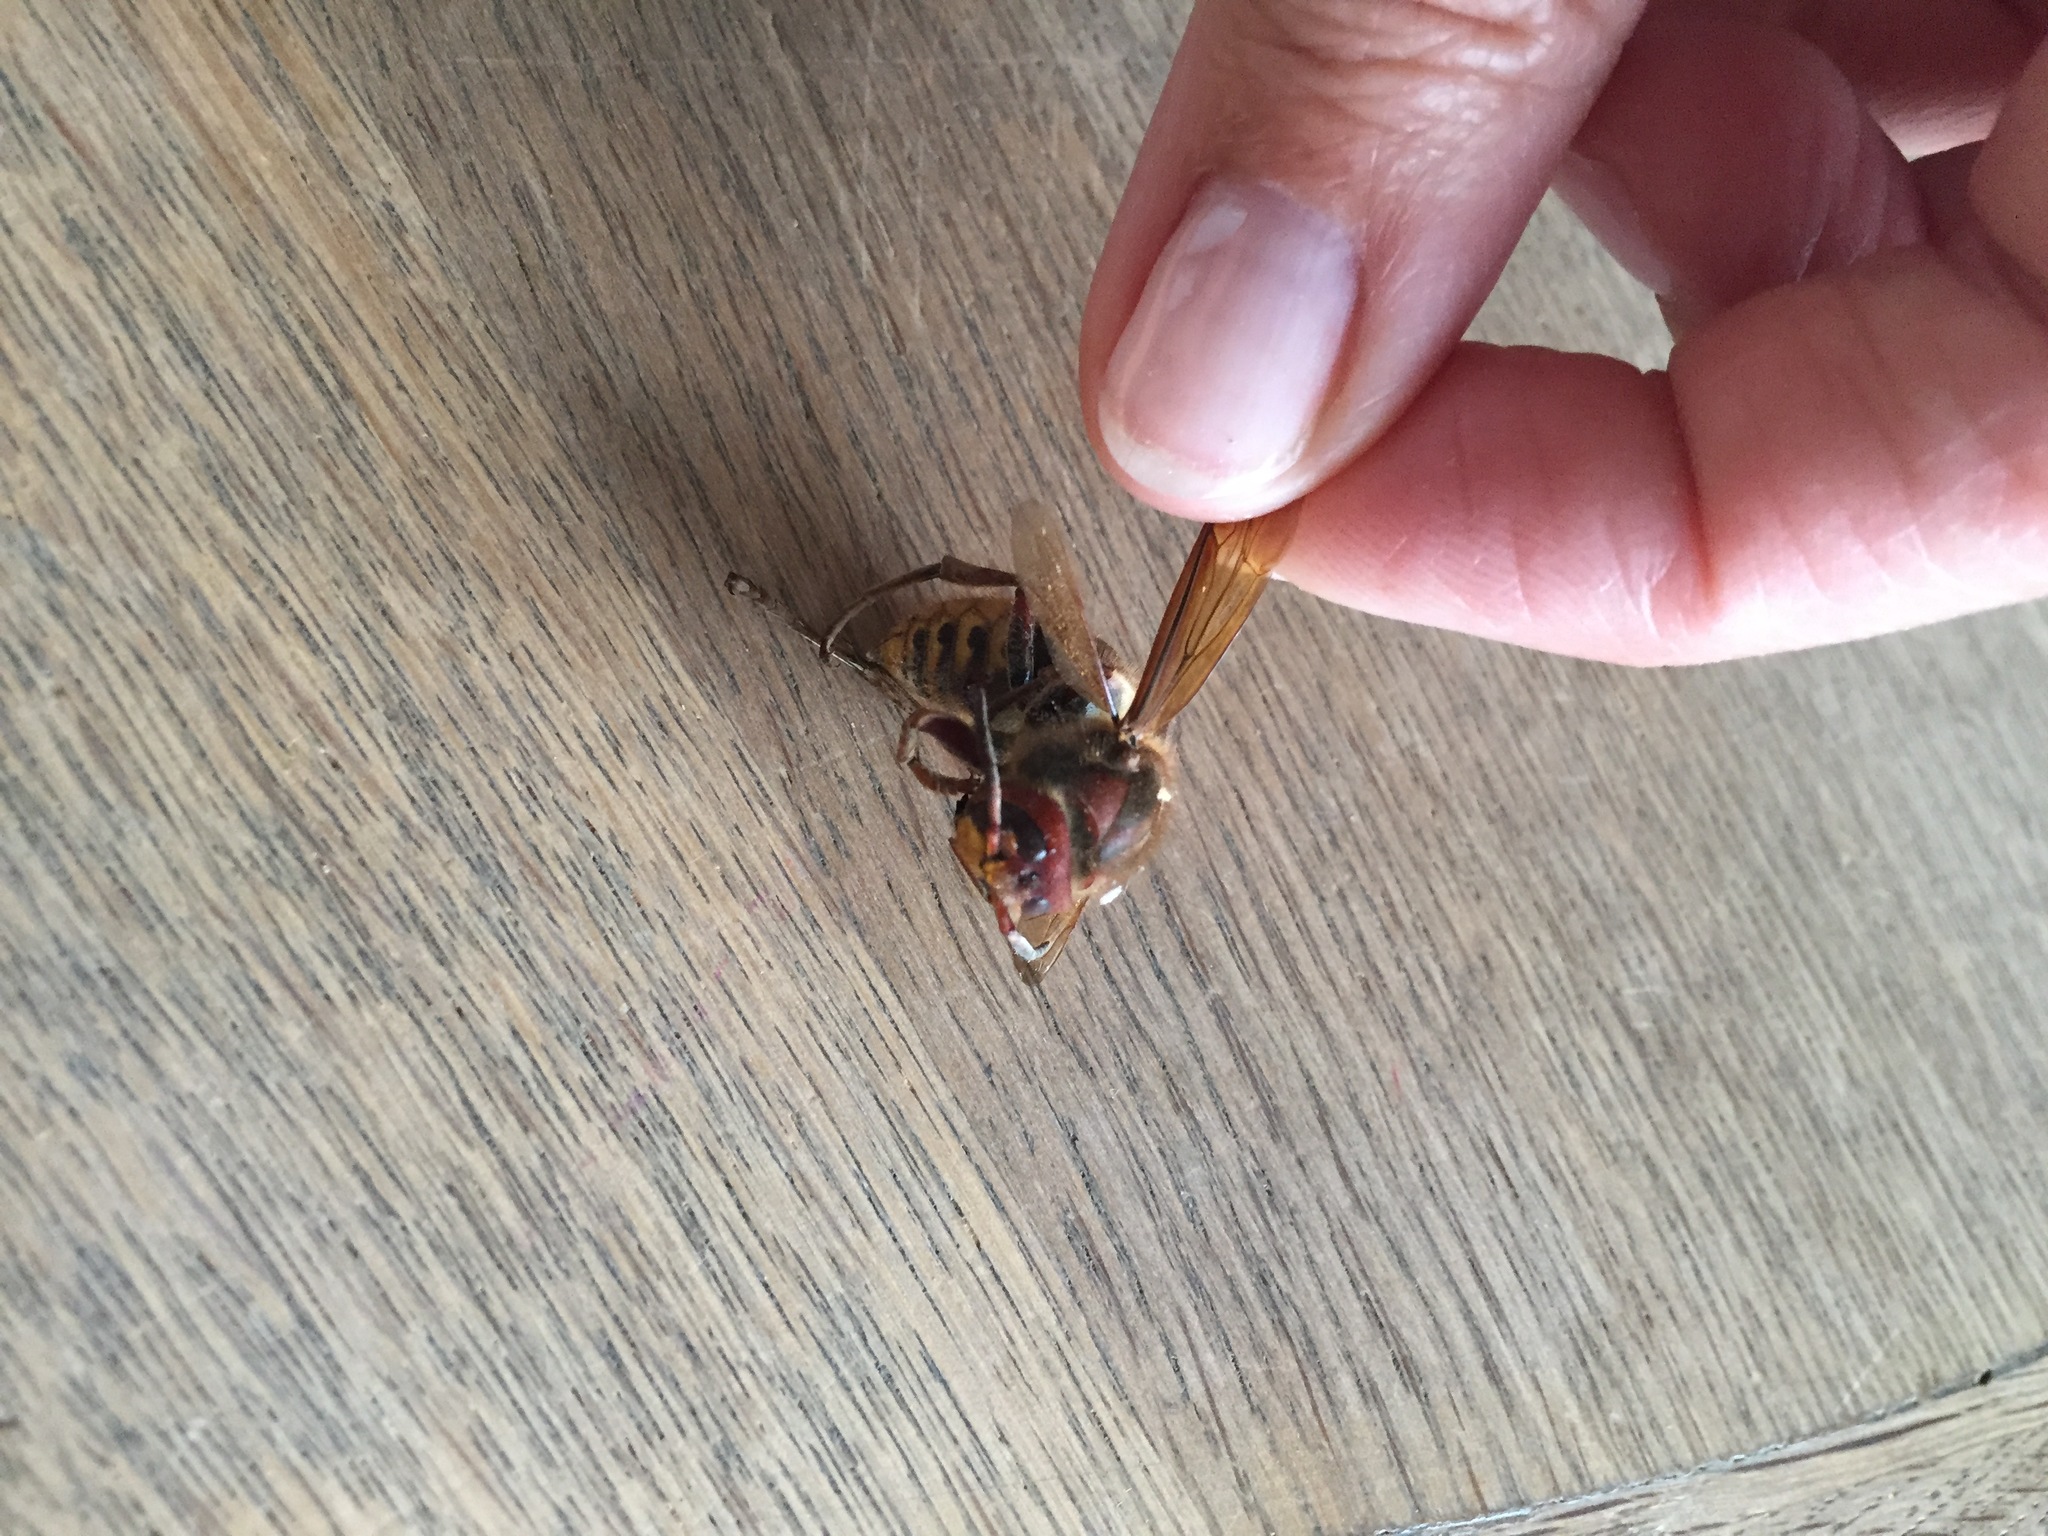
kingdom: Animalia
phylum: Arthropoda
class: Insecta
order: Hymenoptera
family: Vespidae
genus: Vespa
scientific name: Vespa crabro
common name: Hornet
